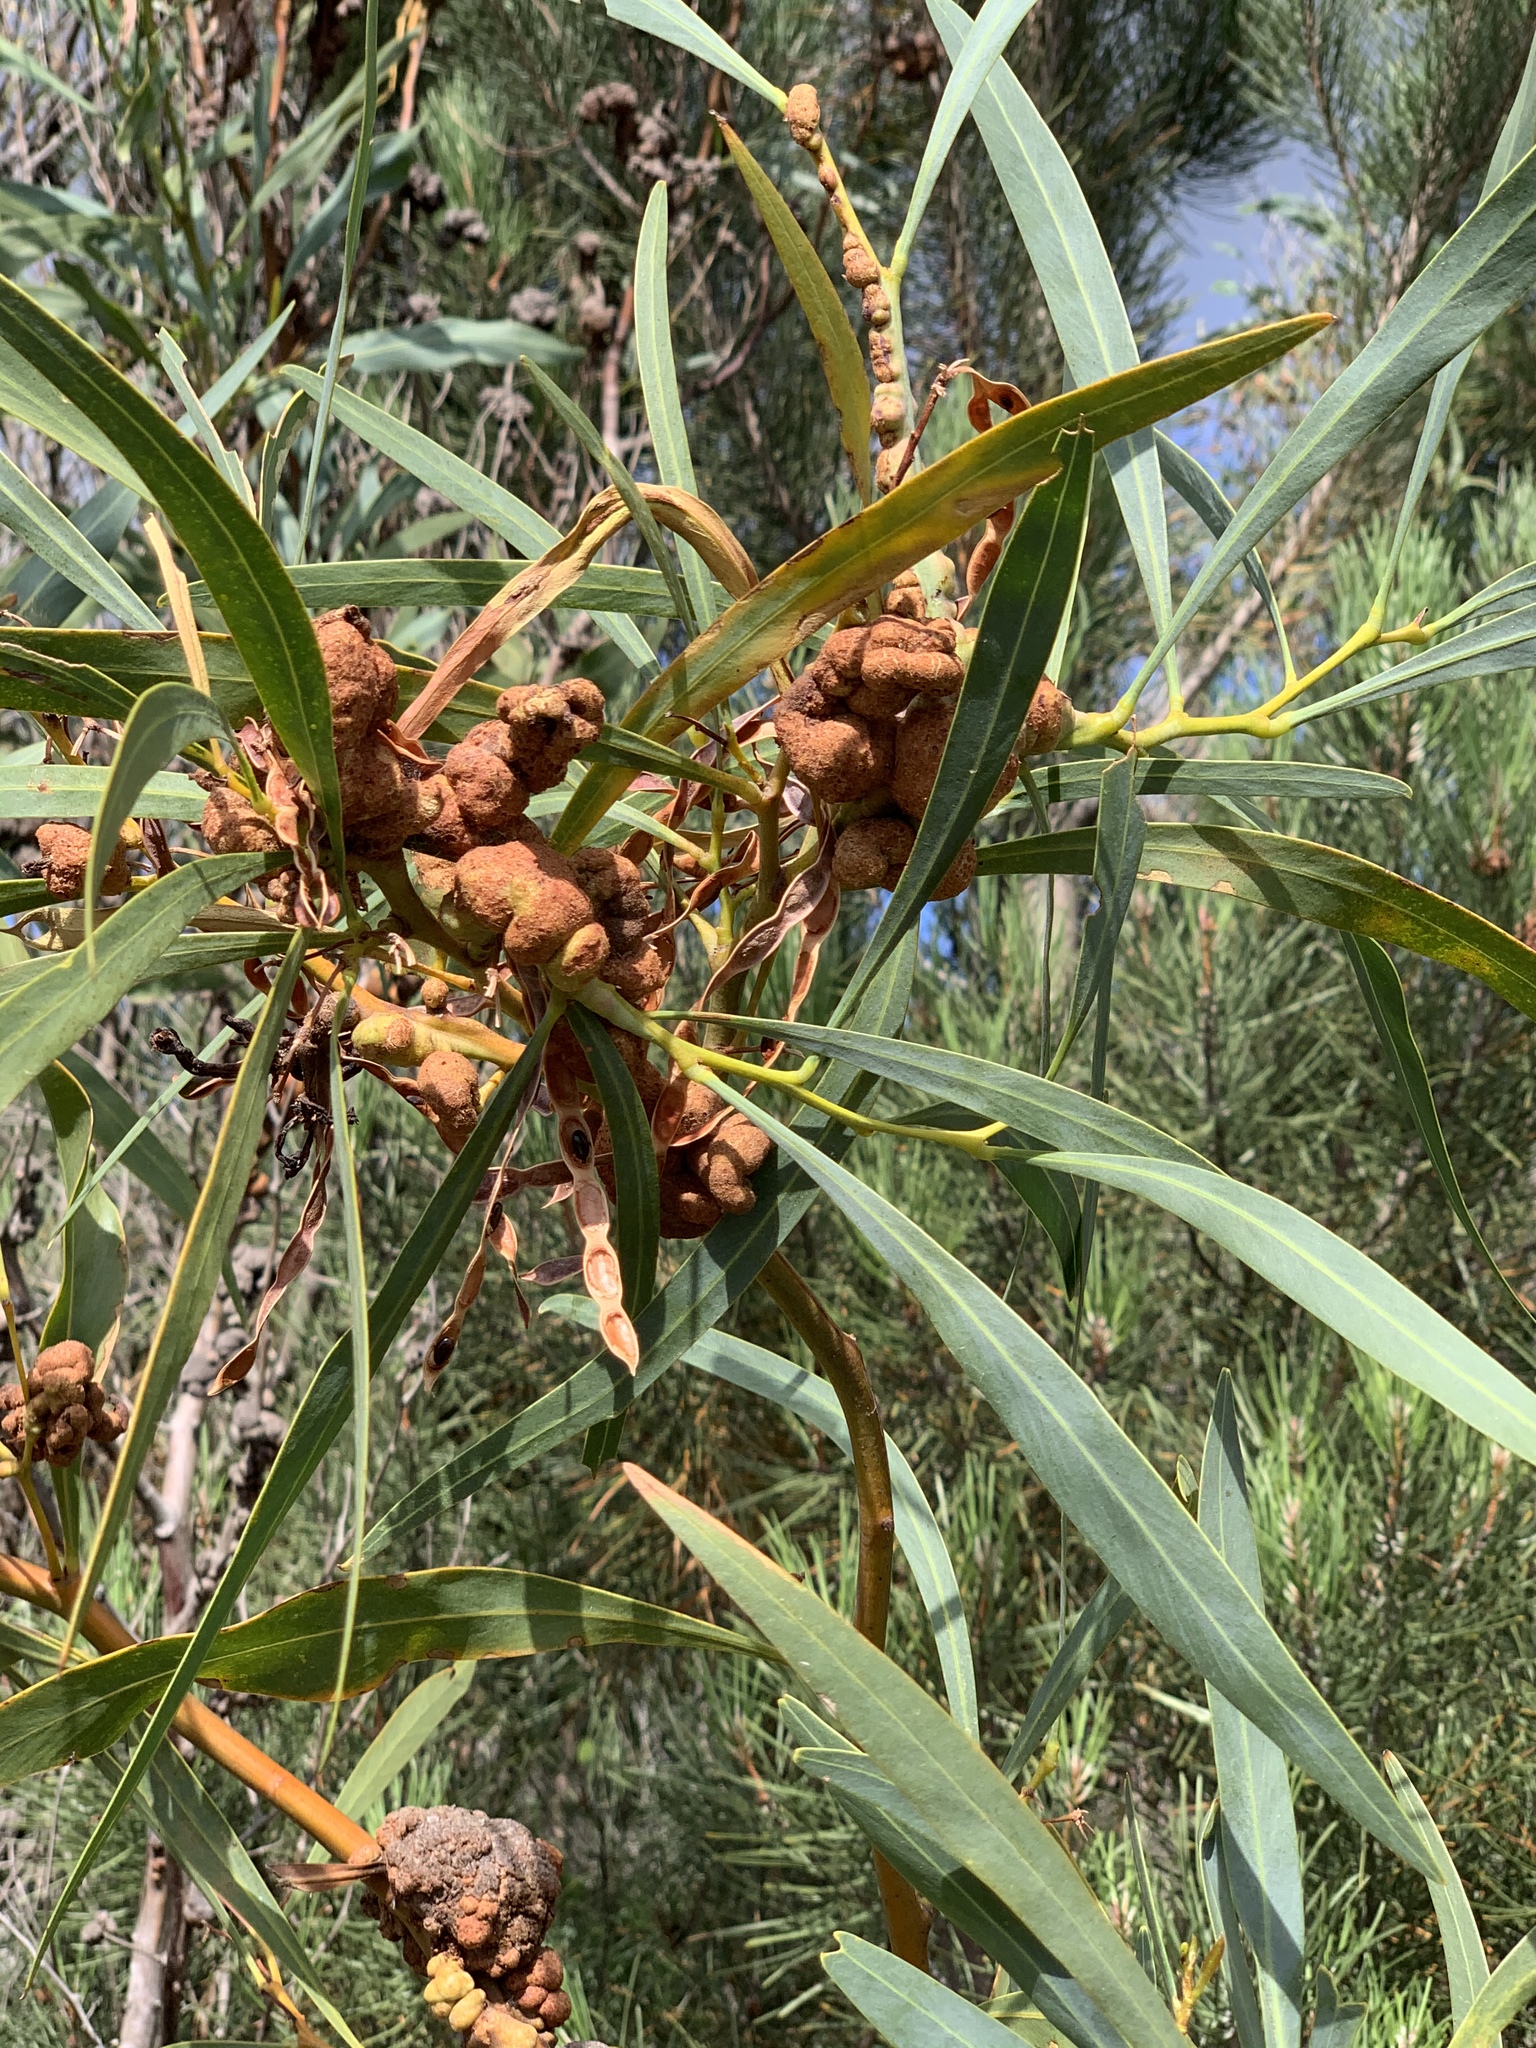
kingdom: Fungi
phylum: Basidiomycota
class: Pucciniomycetes
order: Pucciniales
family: Uromycladiaceae
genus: Uromycladium
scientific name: Uromycladium morrisii
